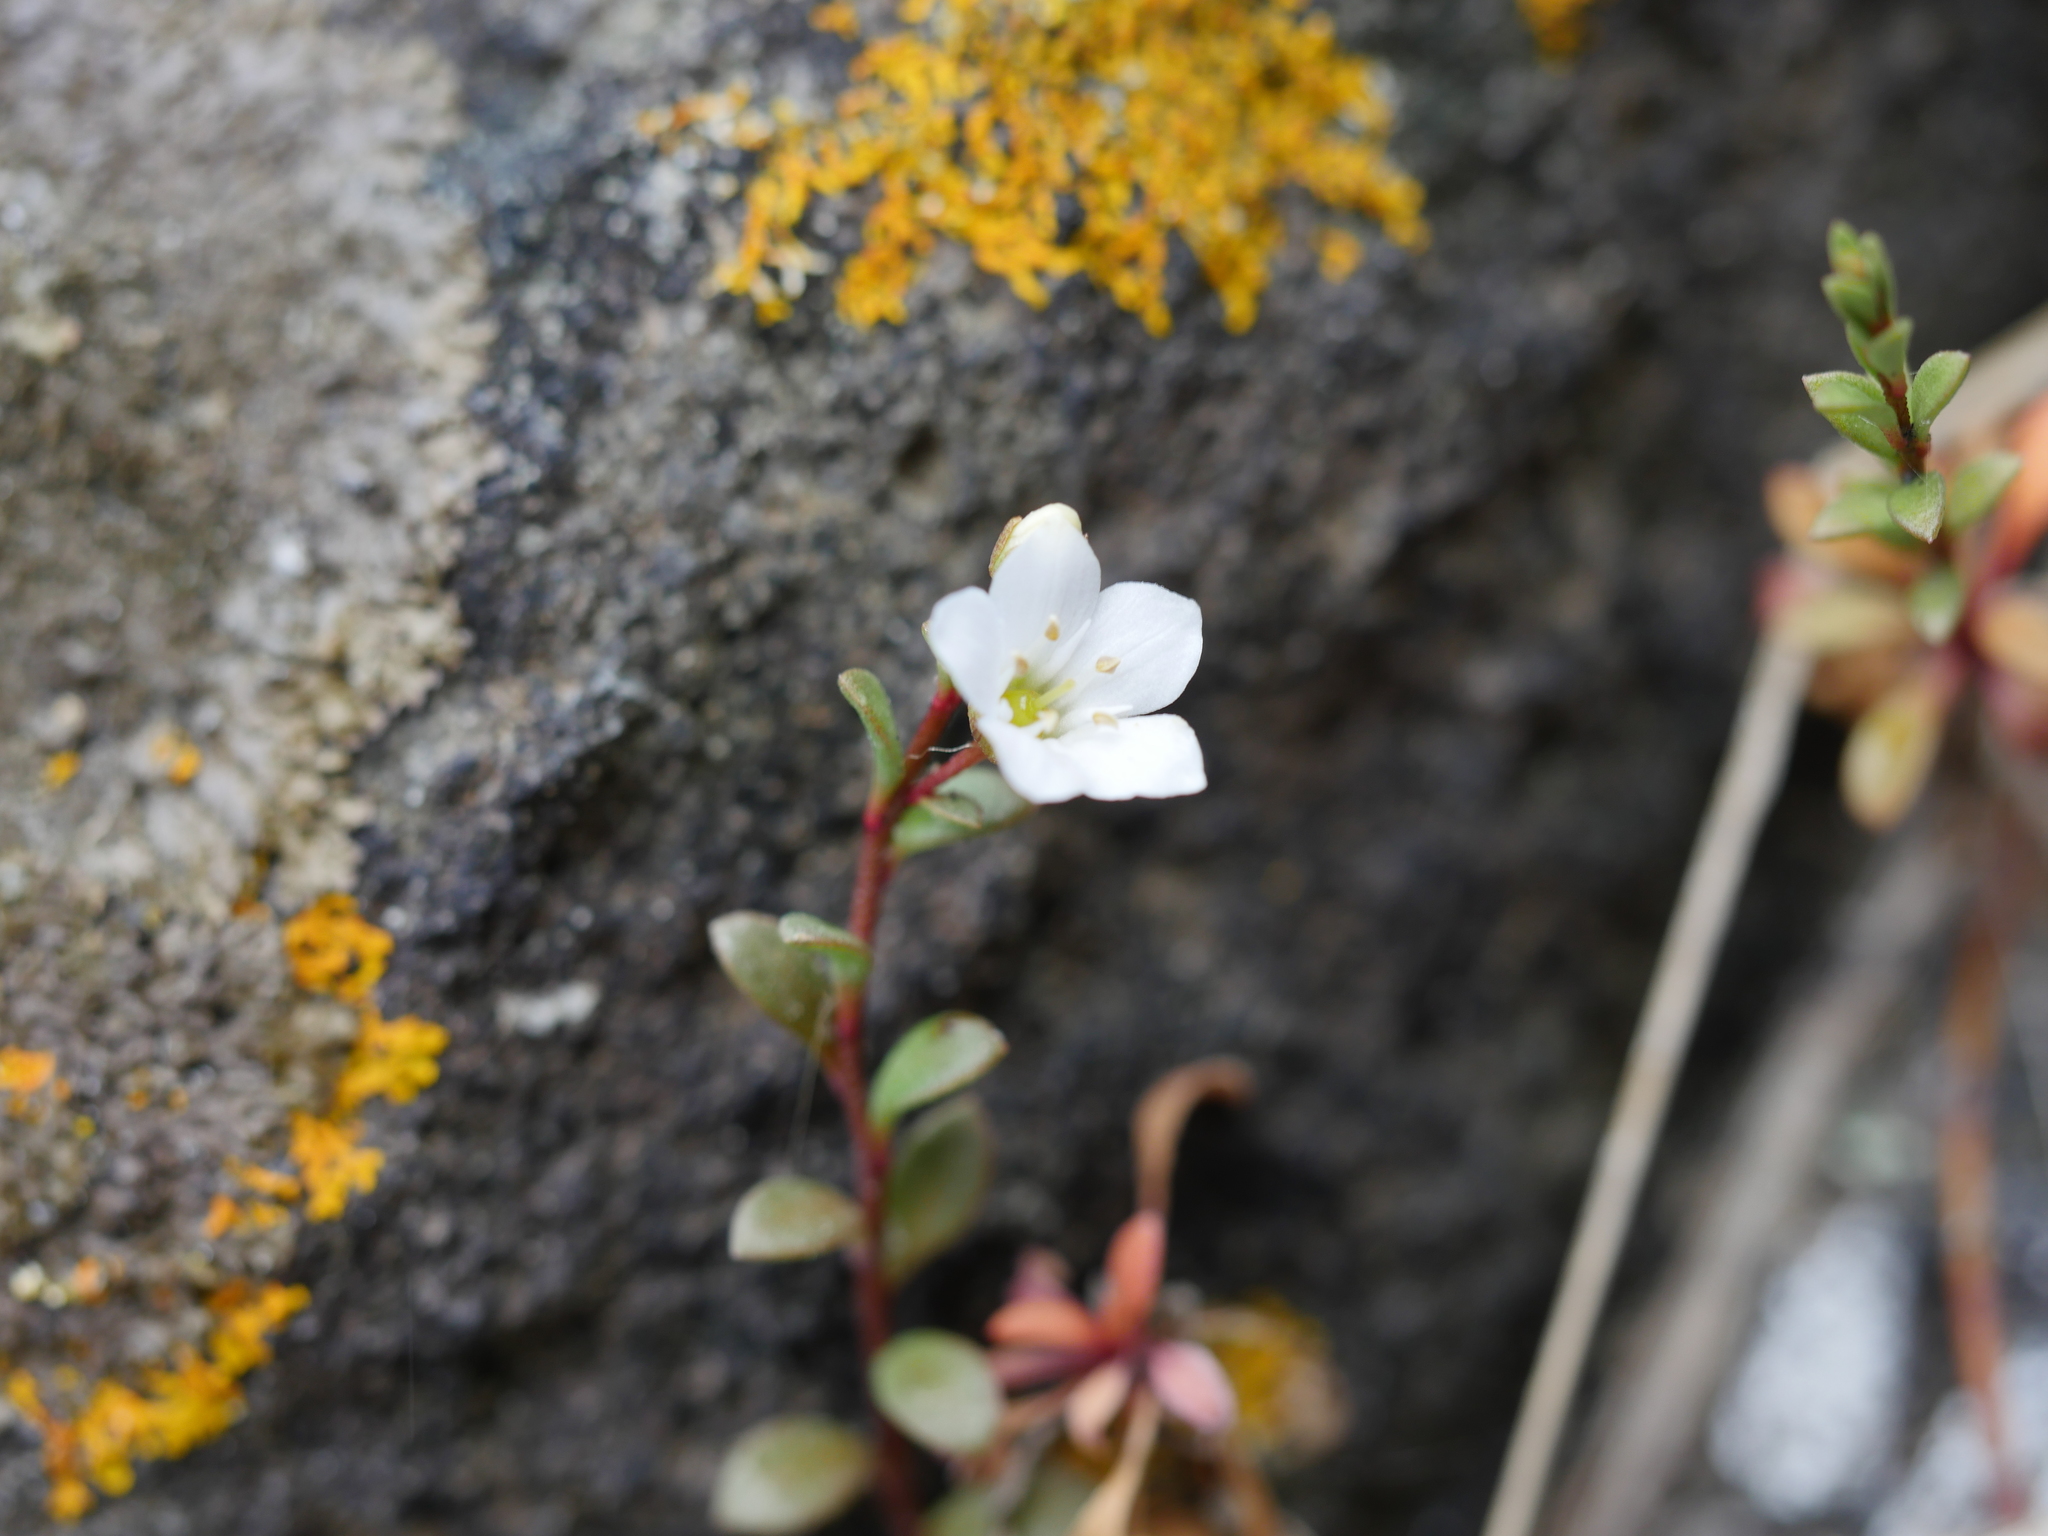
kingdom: Plantae
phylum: Tracheophyta
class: Magnoliopsida
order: Ericales
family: Primulaceae
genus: Samolus
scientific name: Samolus repens
